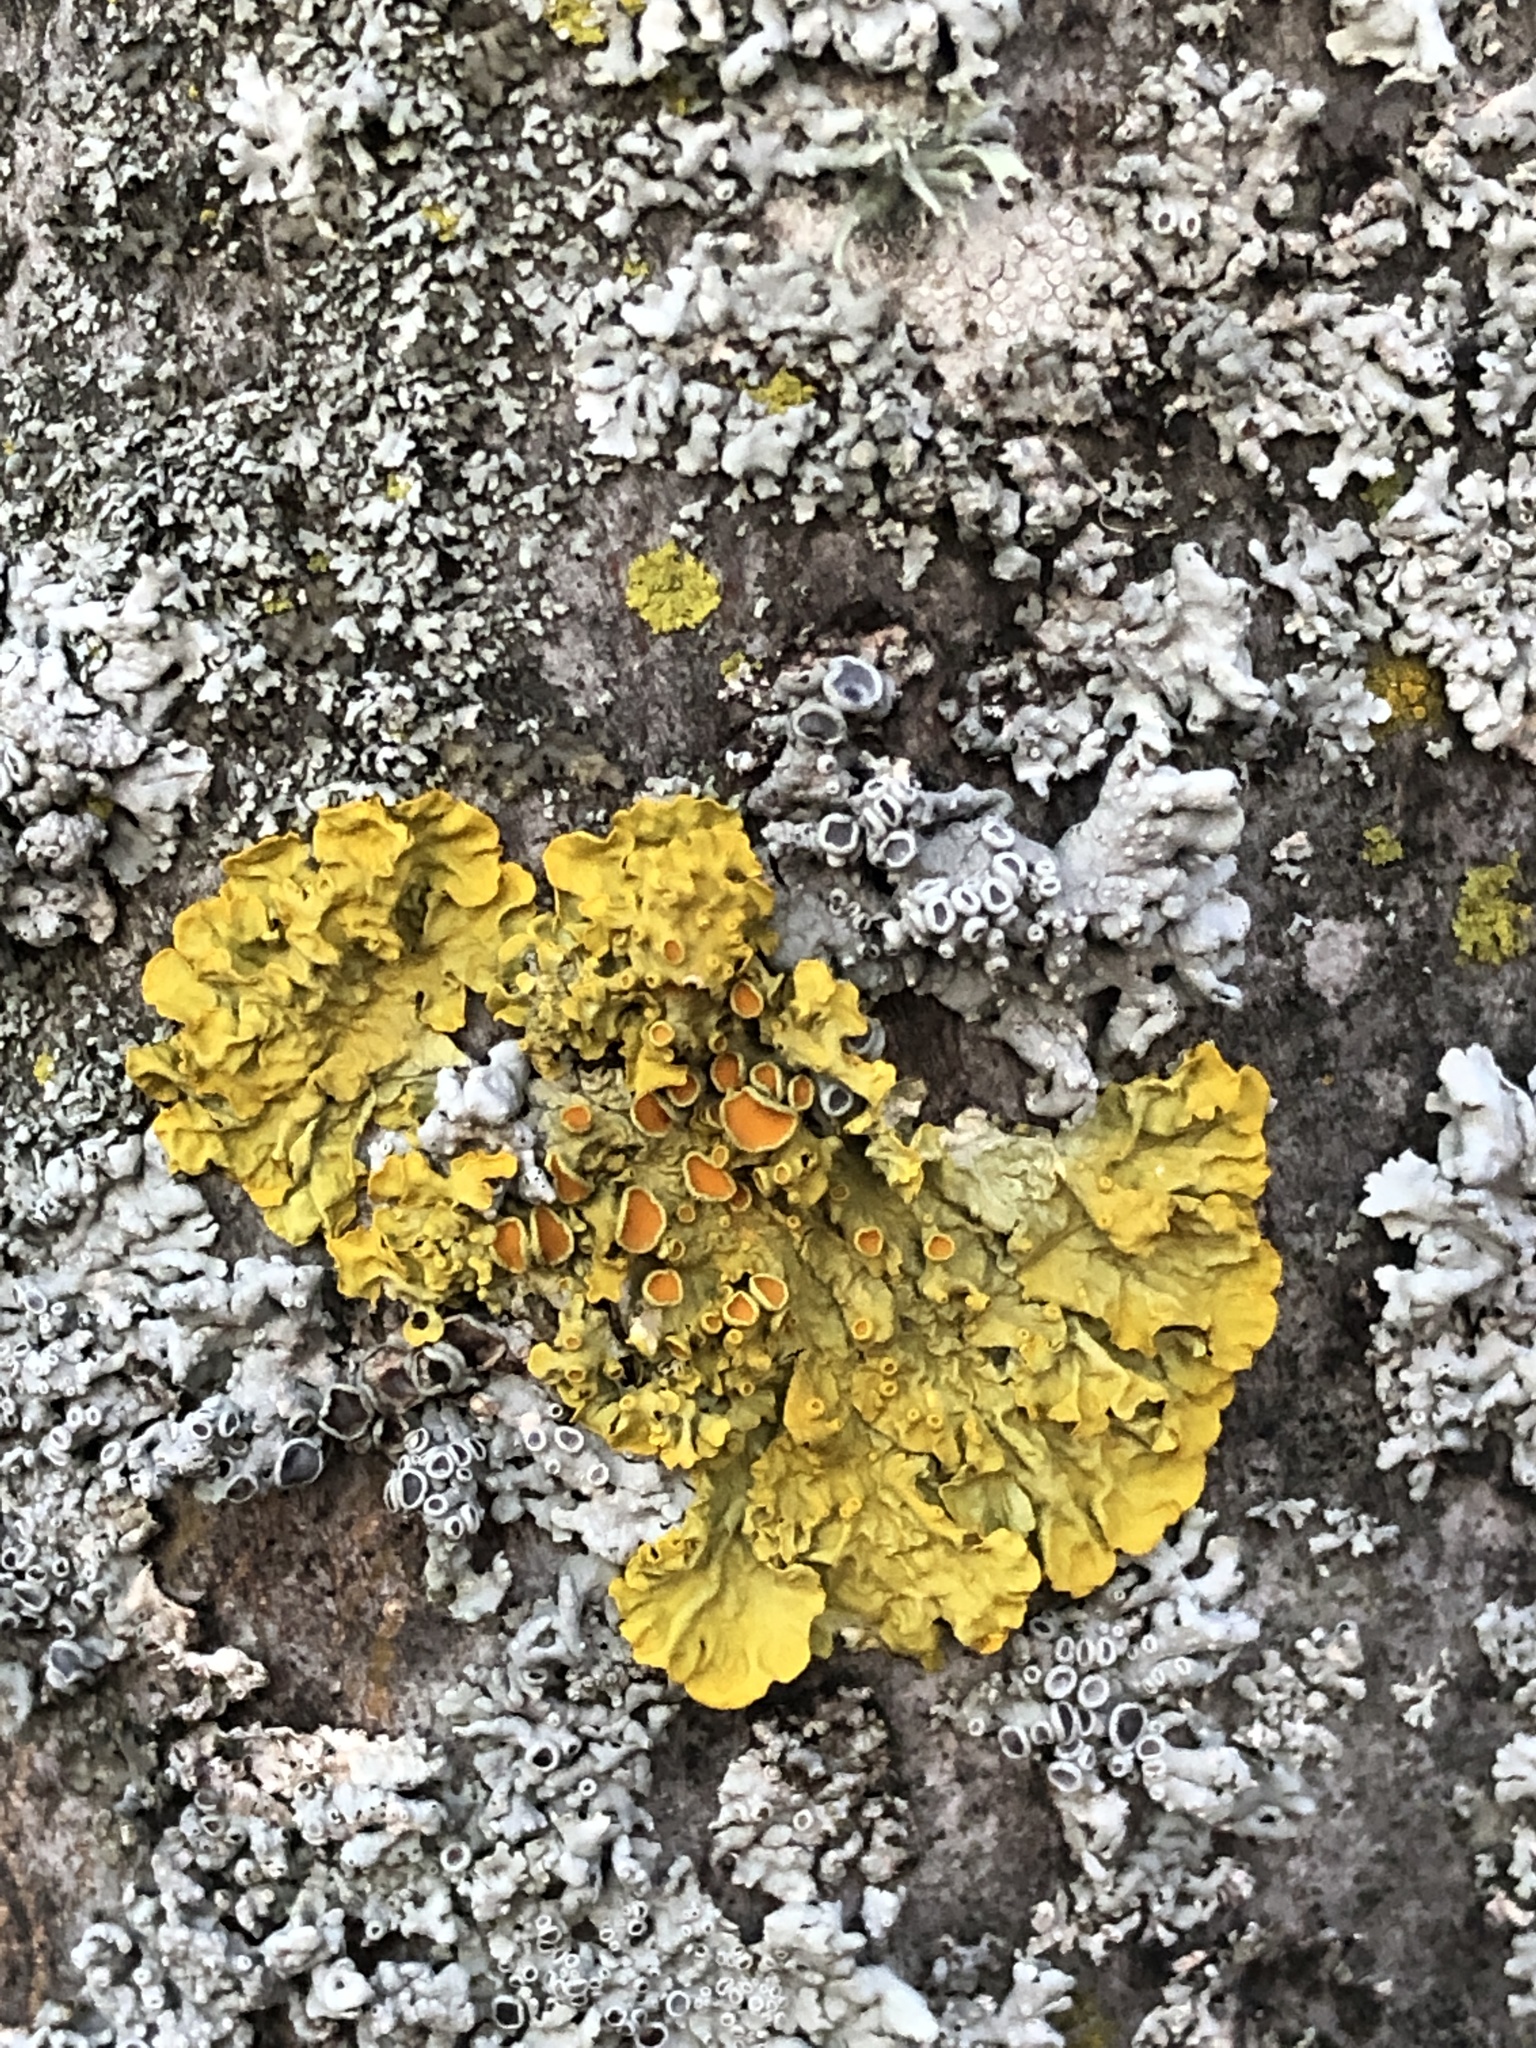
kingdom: Fungi
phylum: Ascomycota
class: Lecanoromycetes
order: Teloschistales
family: Teloschistaceae
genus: Xanthoria
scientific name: Xanthoria parietina
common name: Common orange lichen
